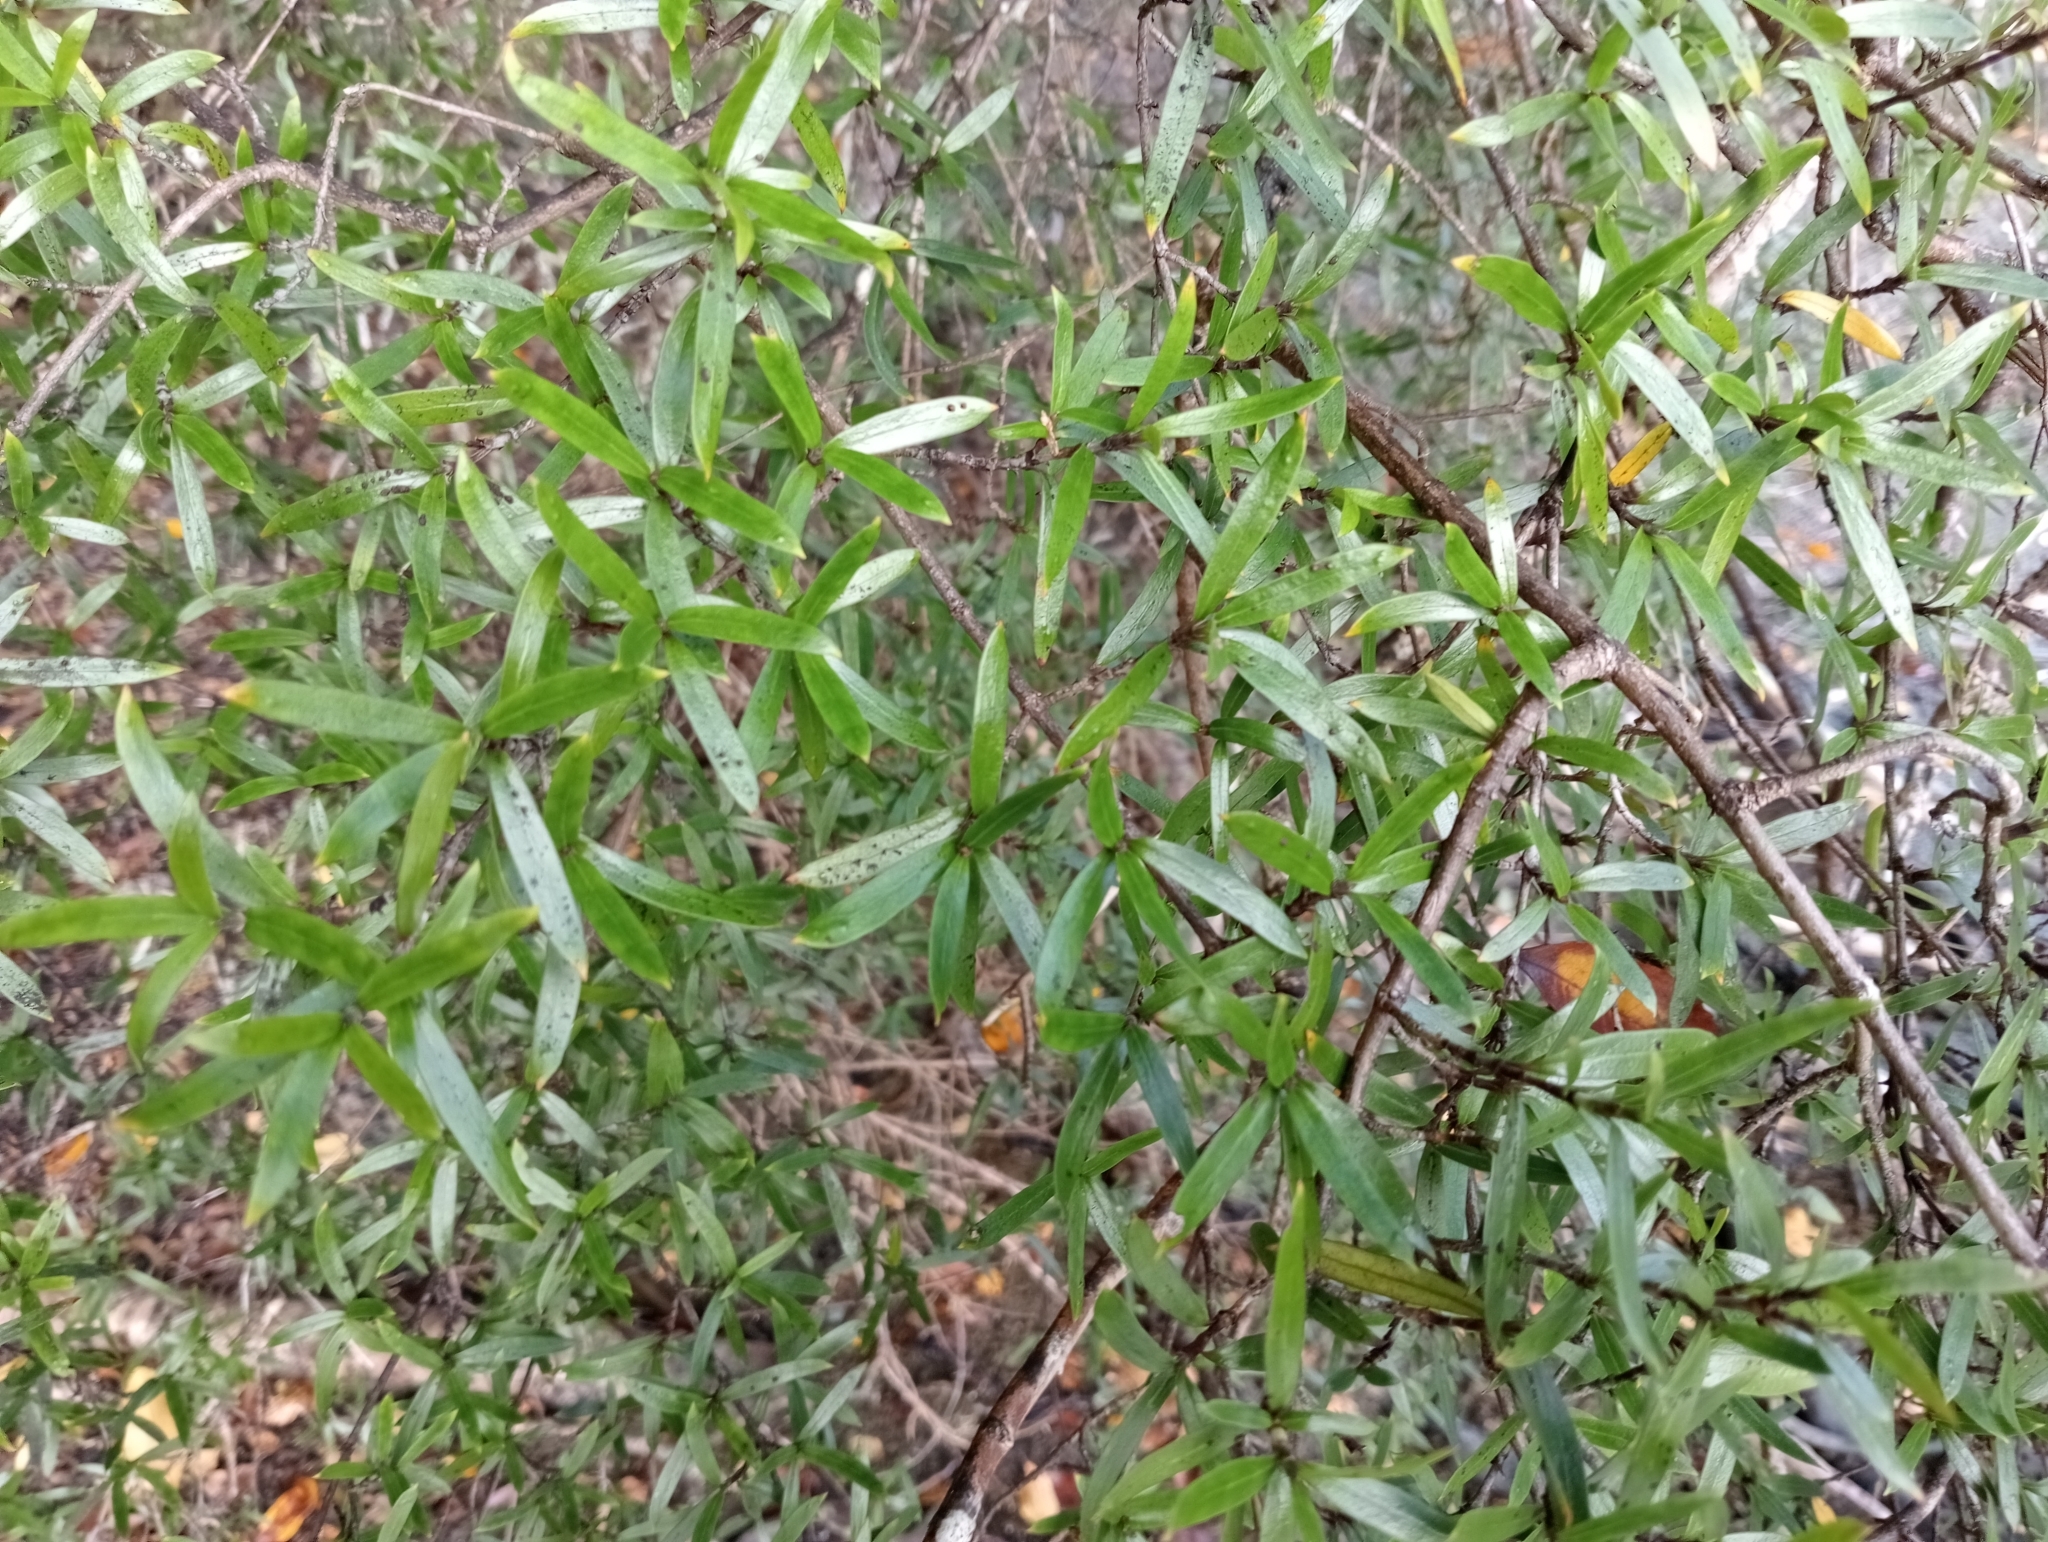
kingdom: Plantae
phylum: Tracheophyta
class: Magnoliopsida
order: Gentianales
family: Rubiaceae
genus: Coprosma
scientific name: Coprosma linariifolia
